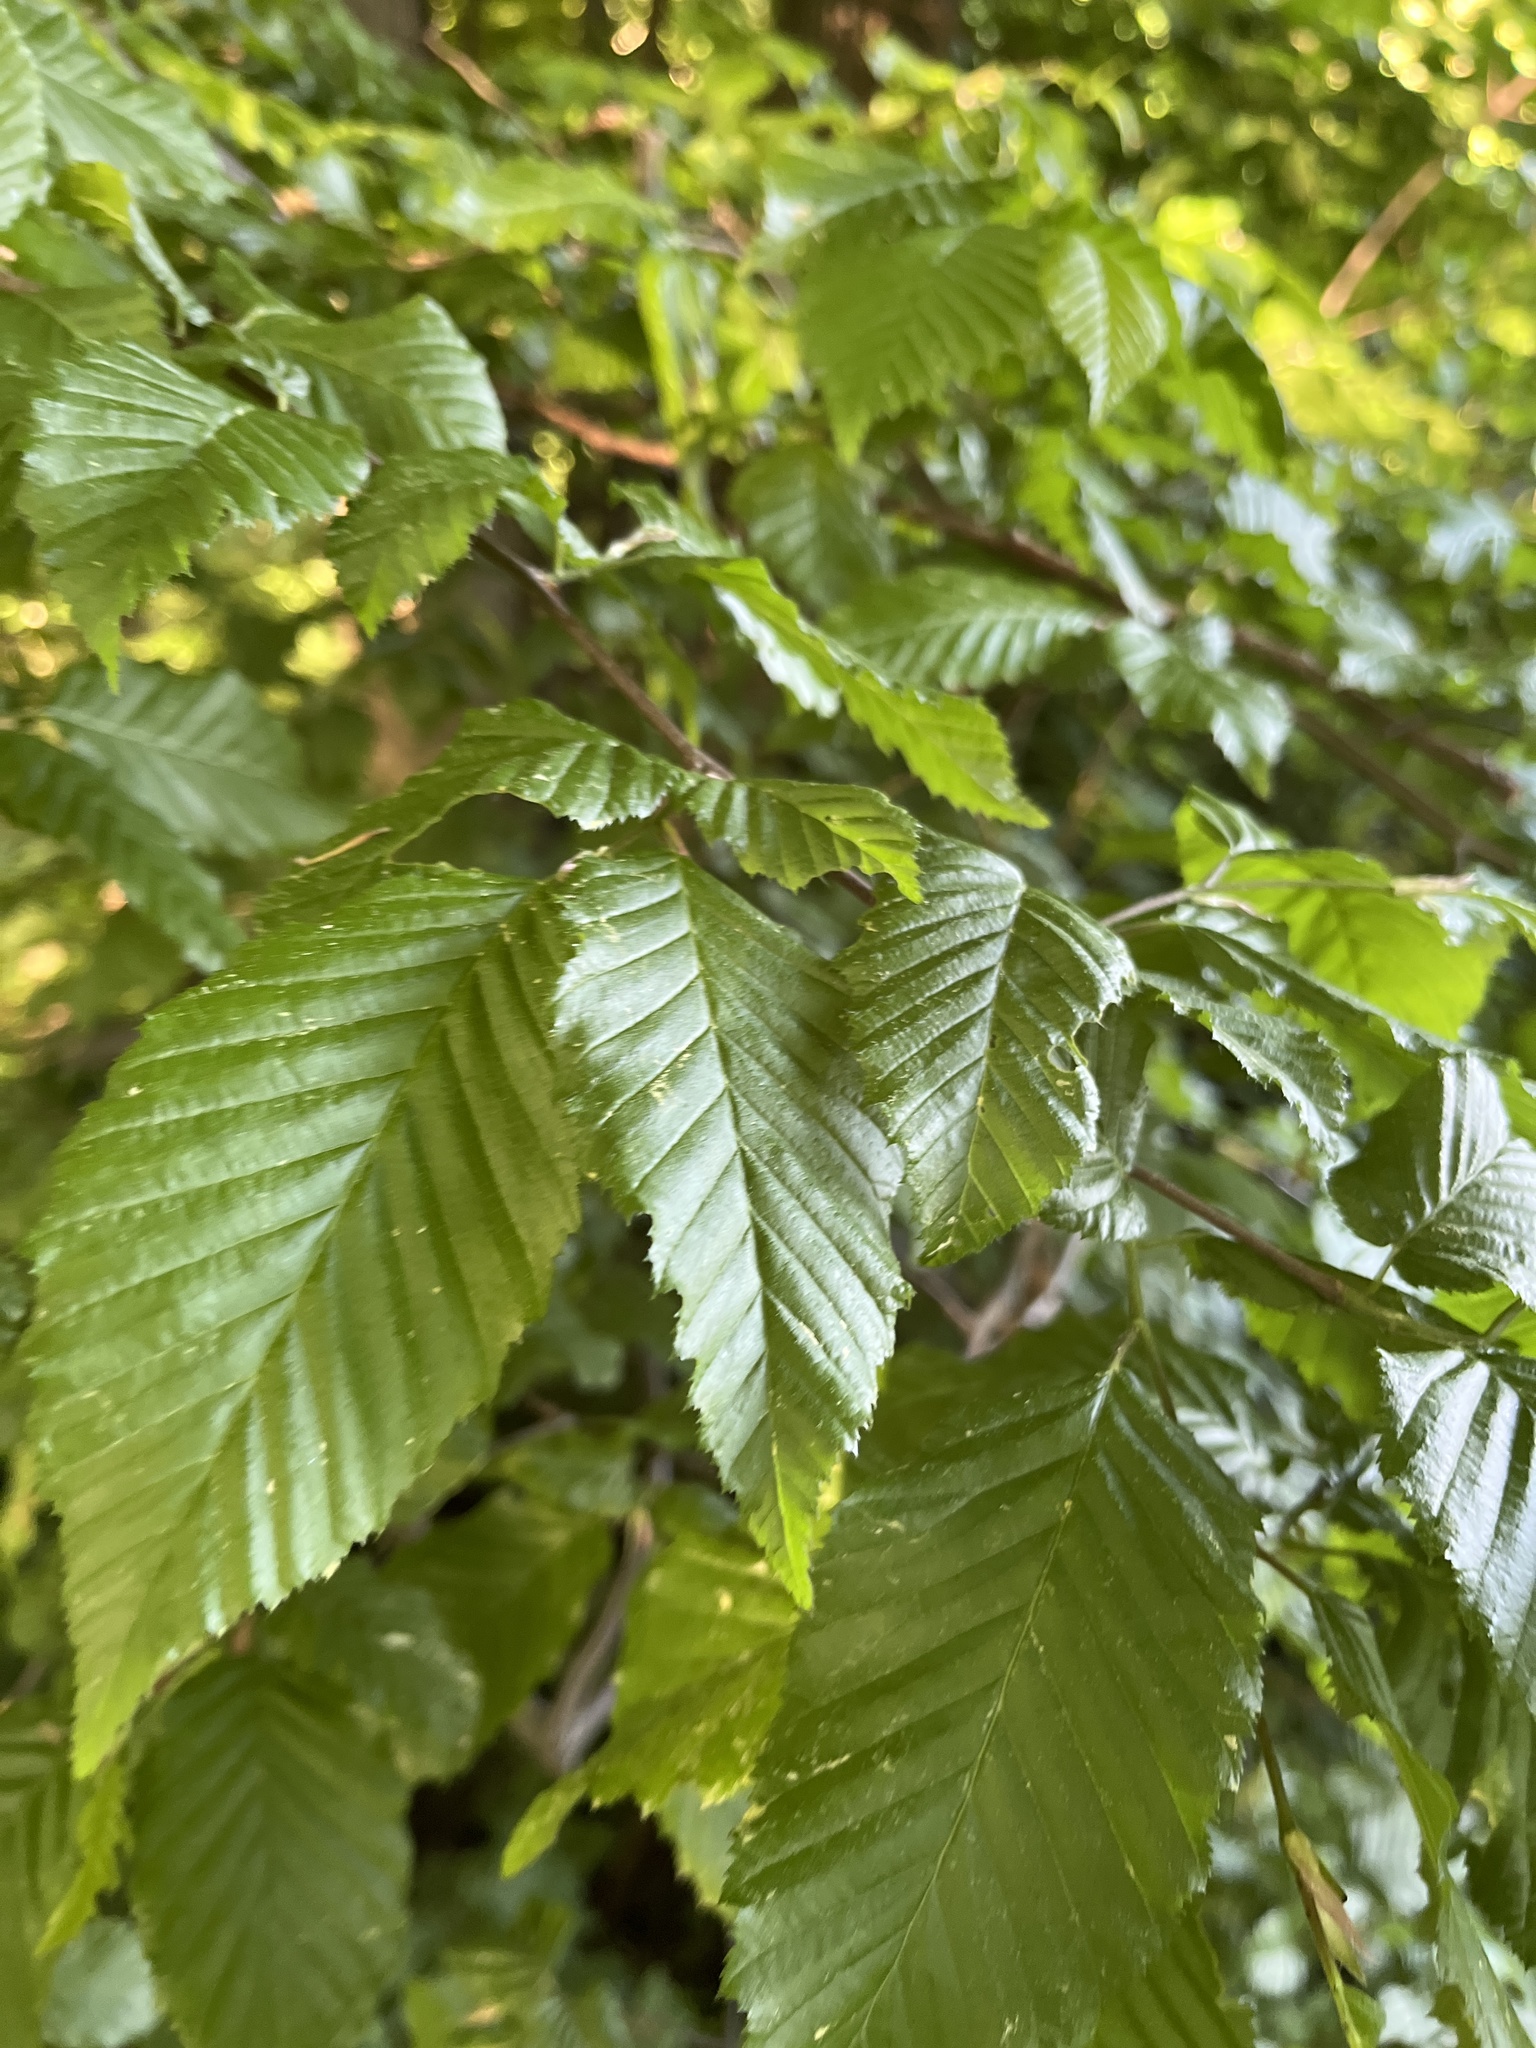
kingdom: Plantae
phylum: Tracheophyta
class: Magnoliopsida
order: Fagales
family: Betulaceae
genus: Carpinus
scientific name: Carpinus betulus
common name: Hornbeam
